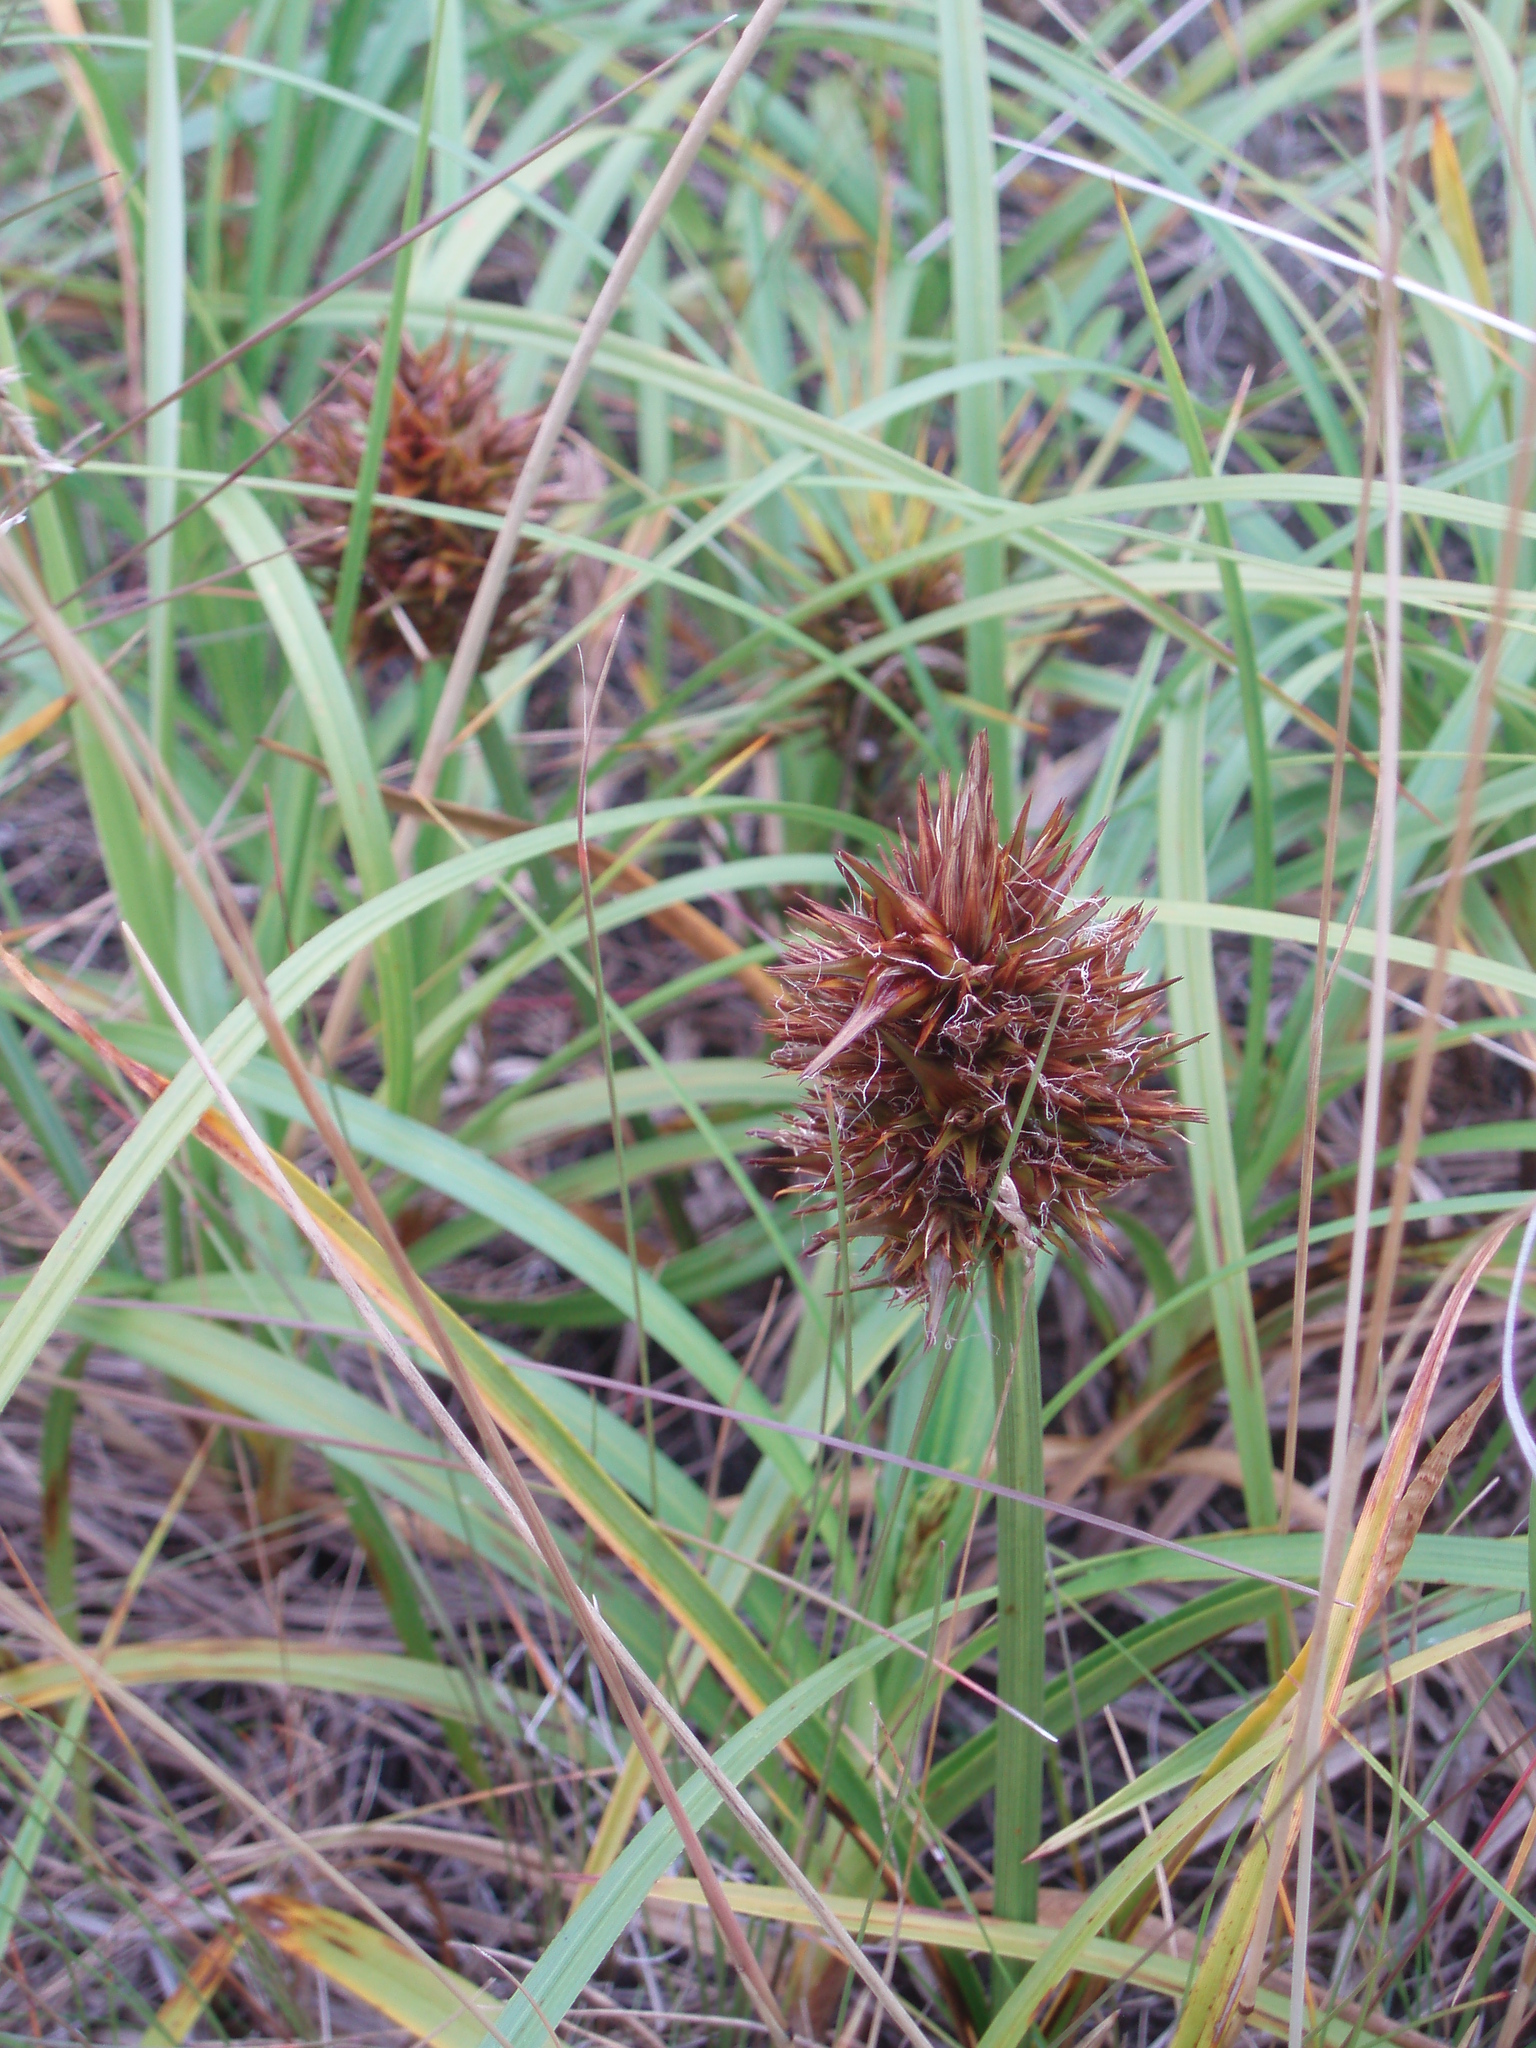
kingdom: Plantae
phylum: Tracheophyta
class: Liliopsida
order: Poales
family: Cyperaceae
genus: Carex
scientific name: Carex macrocephala
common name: Large-head sedge
